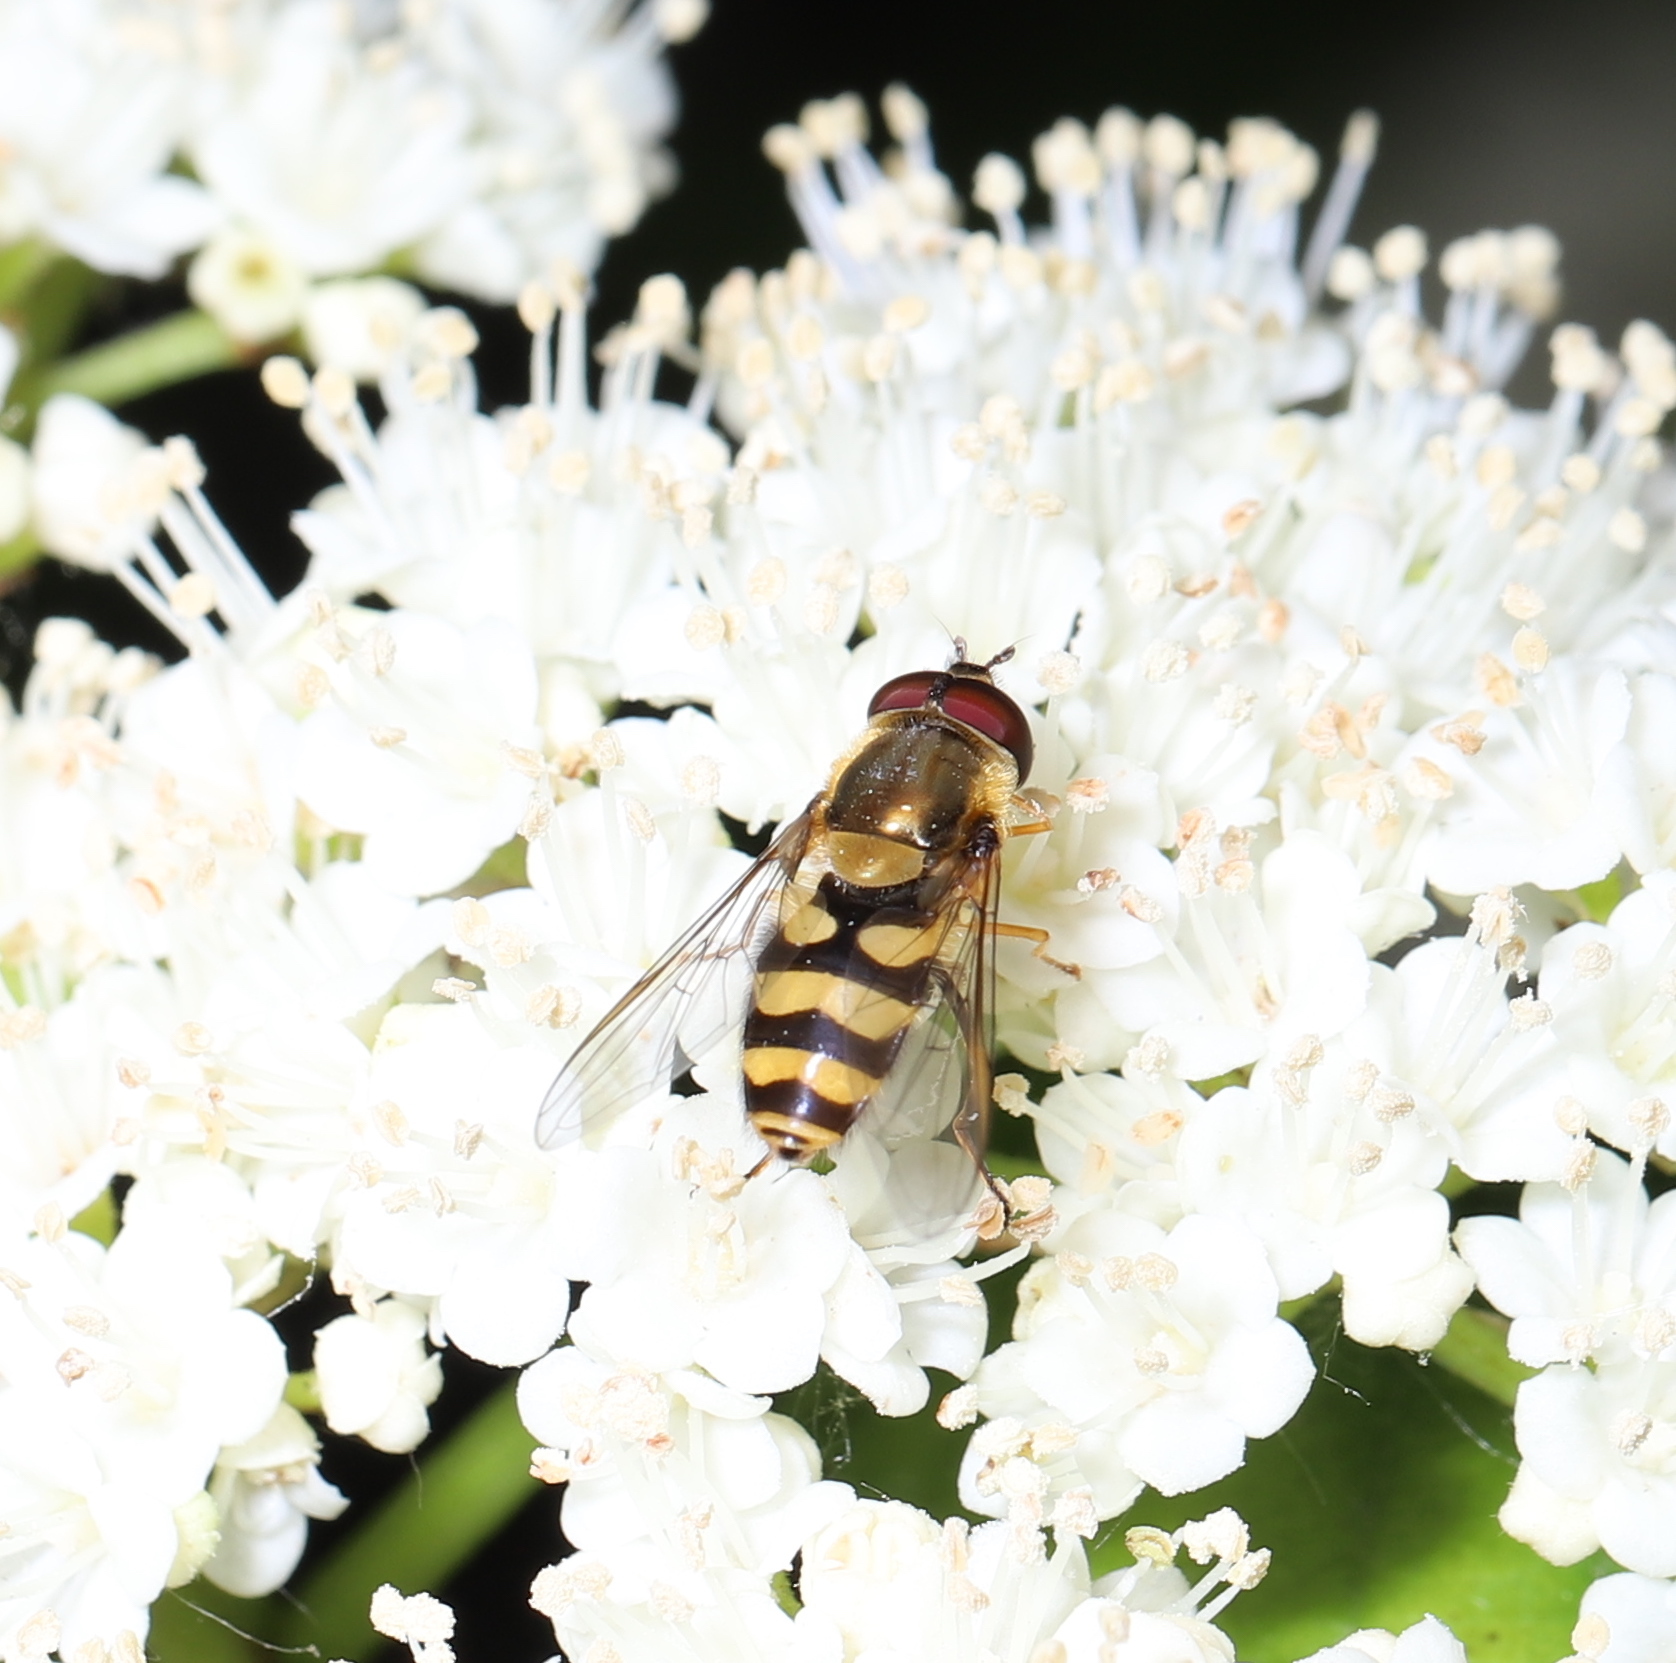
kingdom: Animalia
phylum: Arthropoda
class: Insecta
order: Diptera
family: Syrphidae
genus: Syrphus
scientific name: Syrphus
